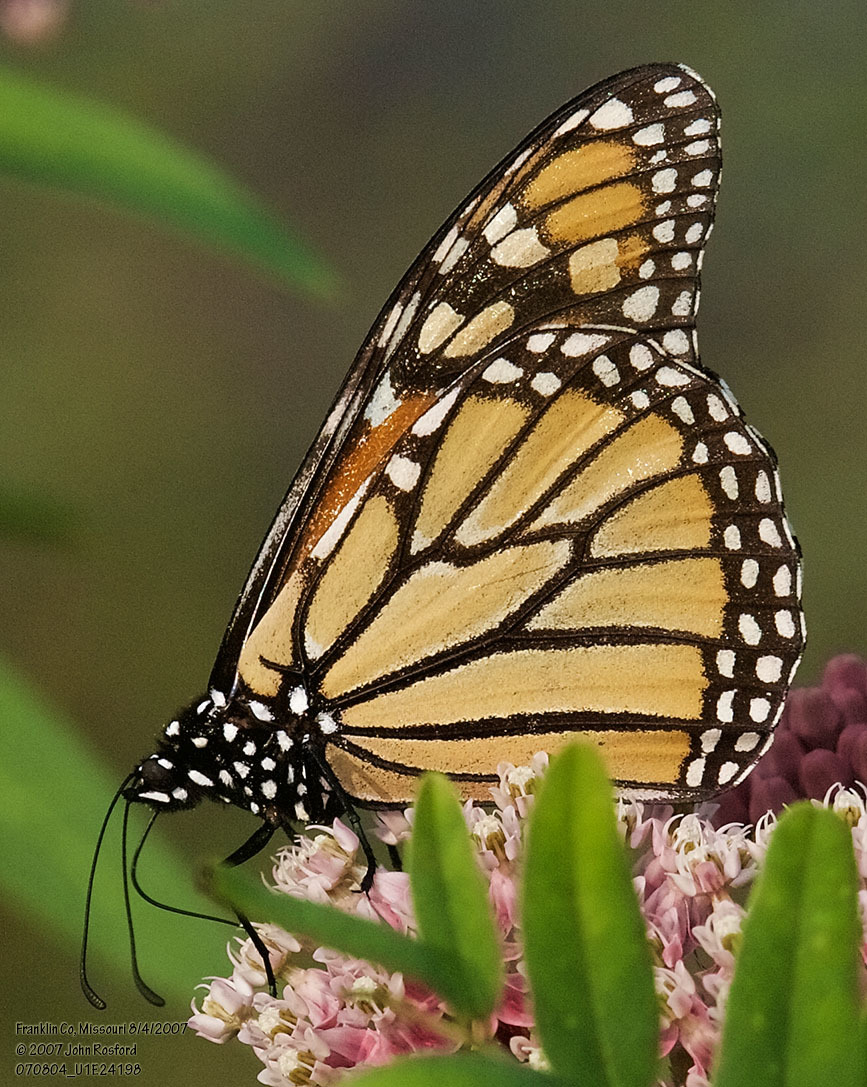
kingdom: Animalia
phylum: Arthropoda
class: Insecta
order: Lepidoptera
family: Nymphalidae
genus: Danaus
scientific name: Danaus plexippus
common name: Monarch
